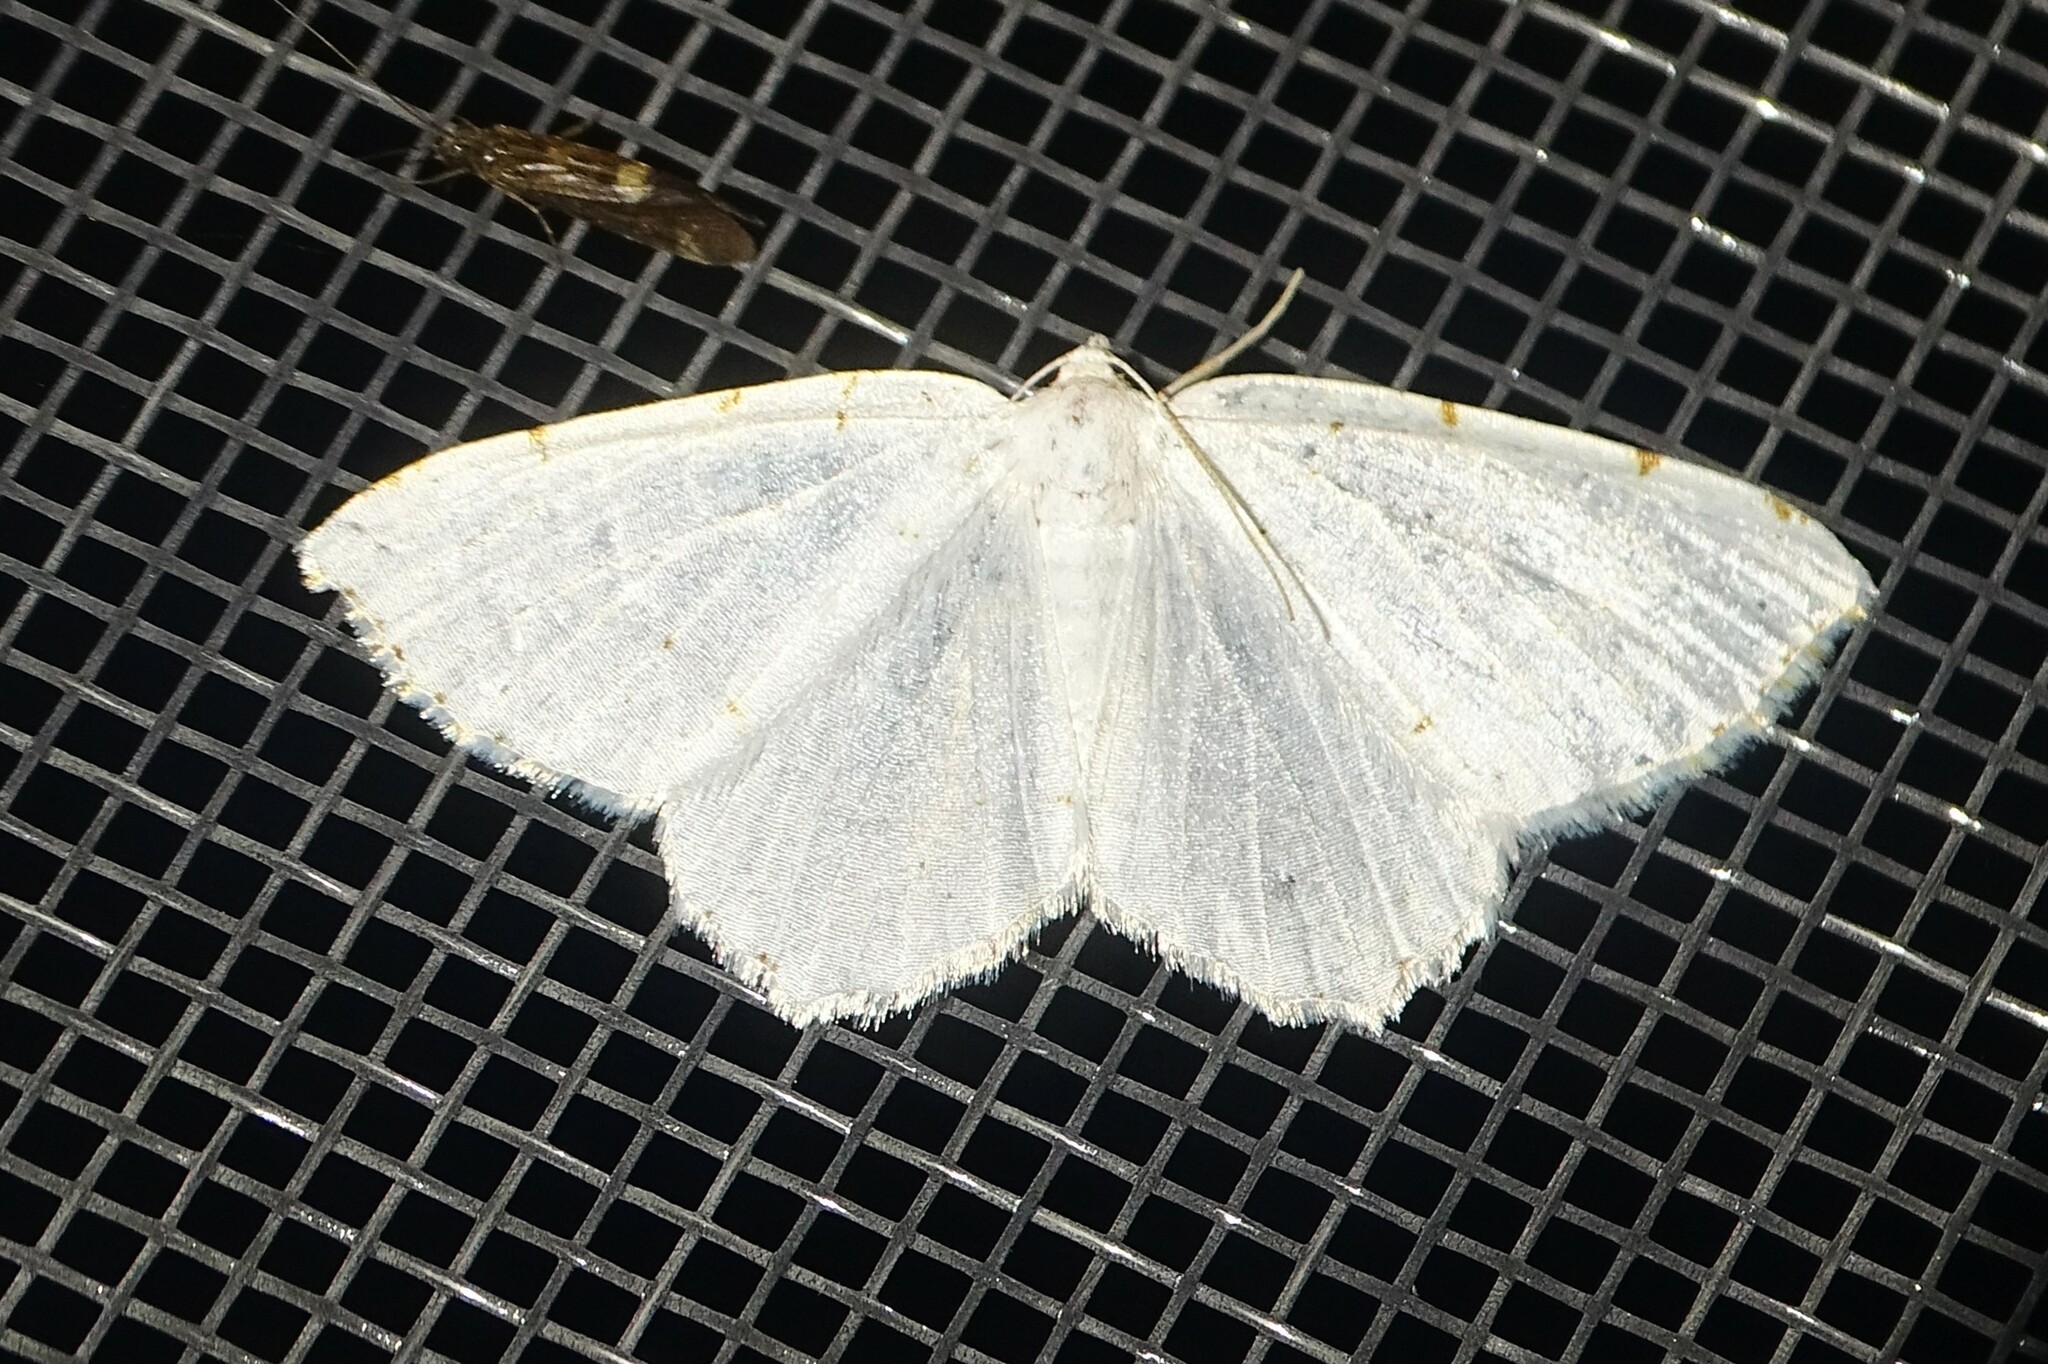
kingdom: Animalia
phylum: Arthropoda
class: Insecta
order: Lepidoptera
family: Geometridae
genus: Macaria
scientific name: Macaria pustularia
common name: Lesser maple spanworm moth
